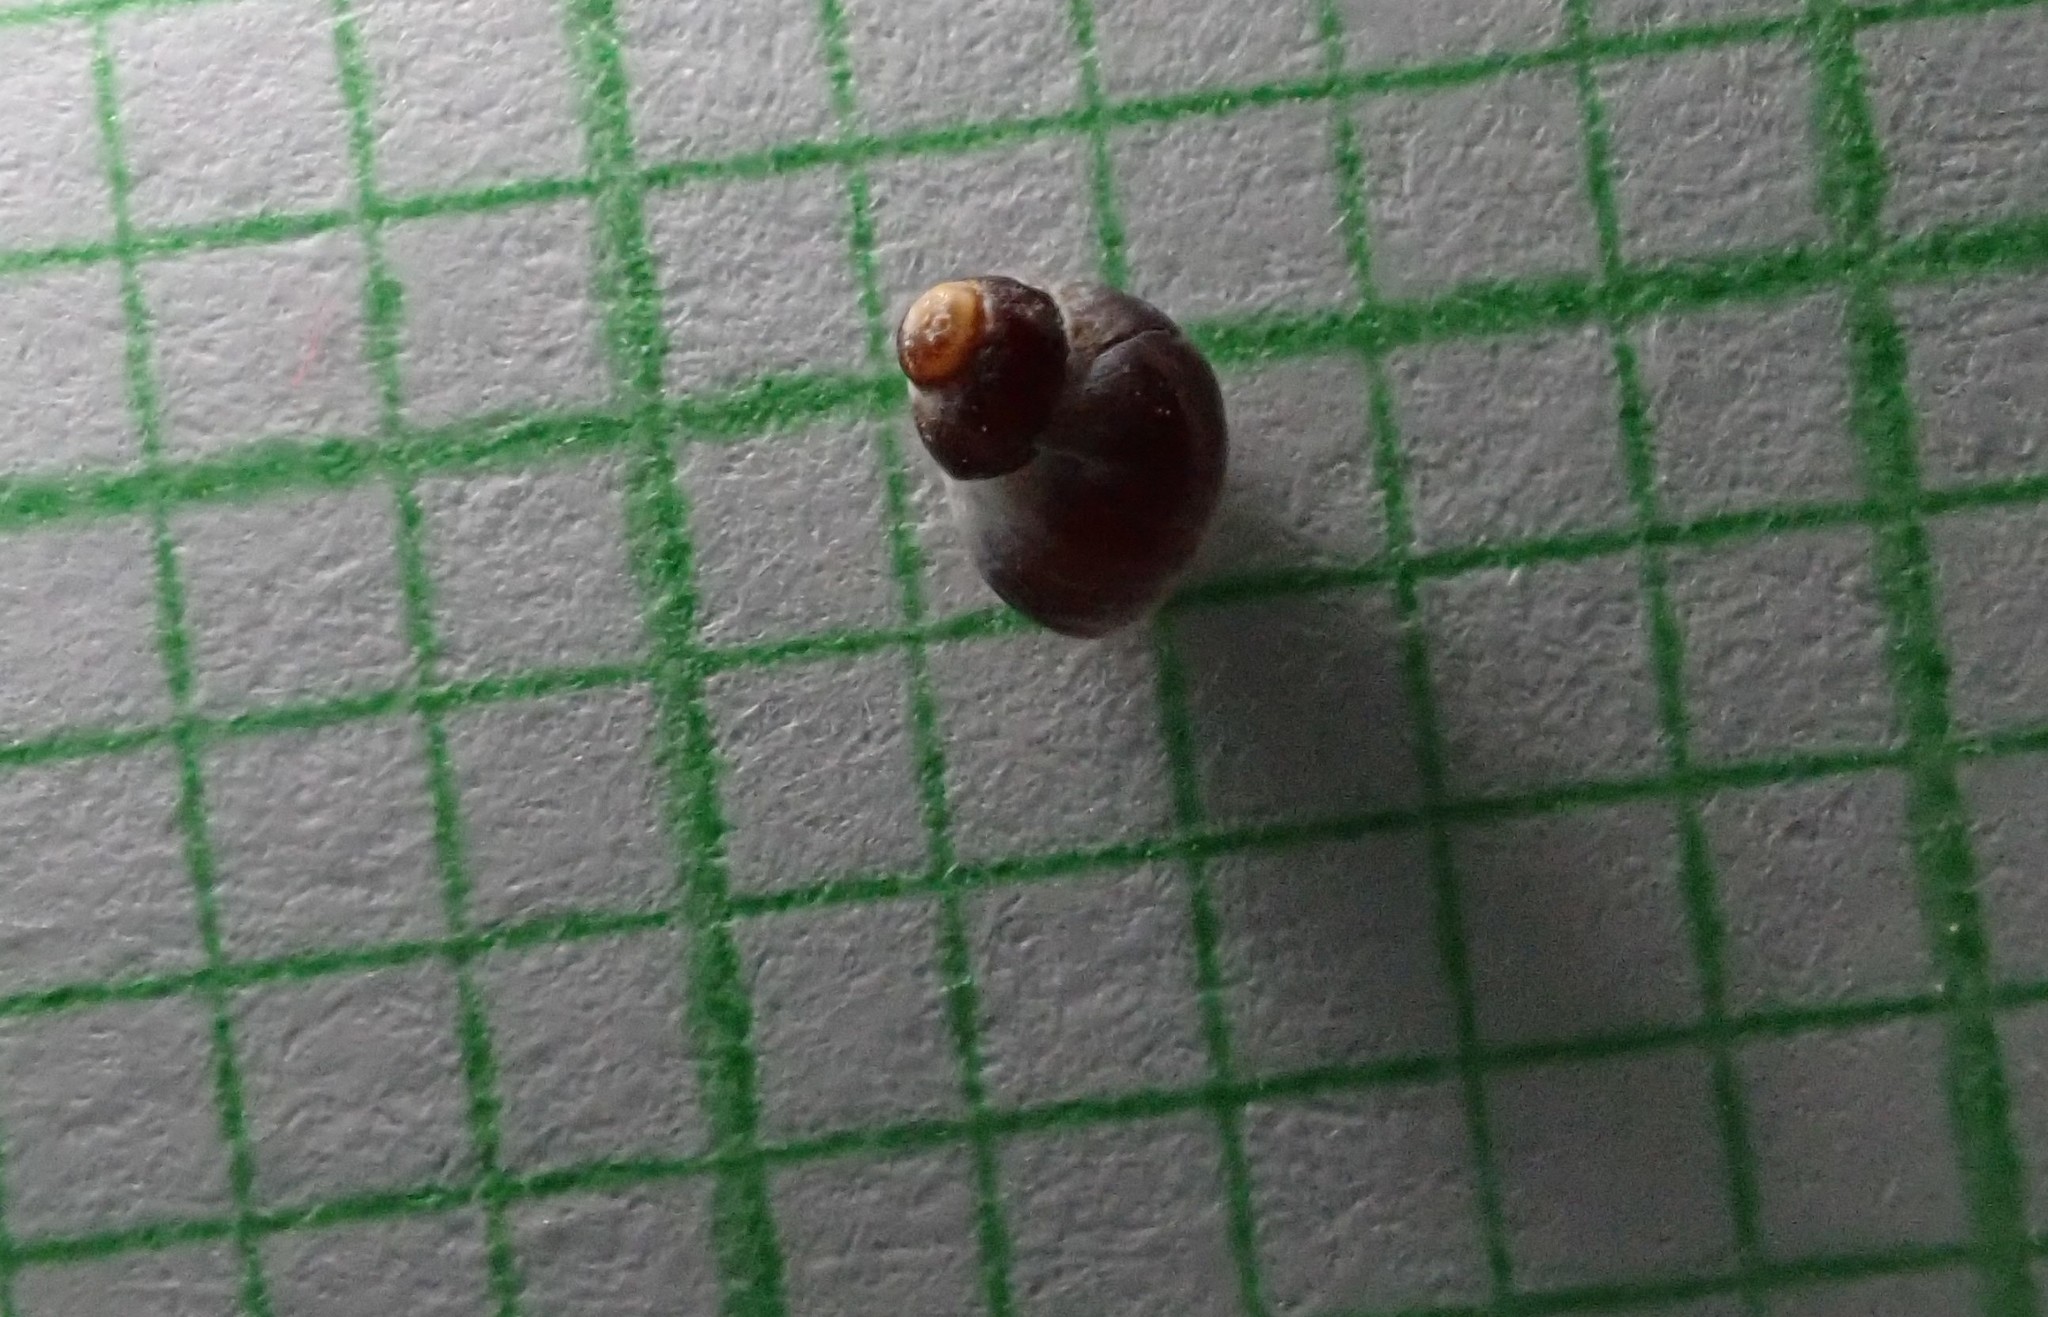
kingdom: Animalia
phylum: Mollusca
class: Gastropoda
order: Littorinimorpha
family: Littorinidae
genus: Austrolittorina
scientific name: Austrolittorina antipodum
